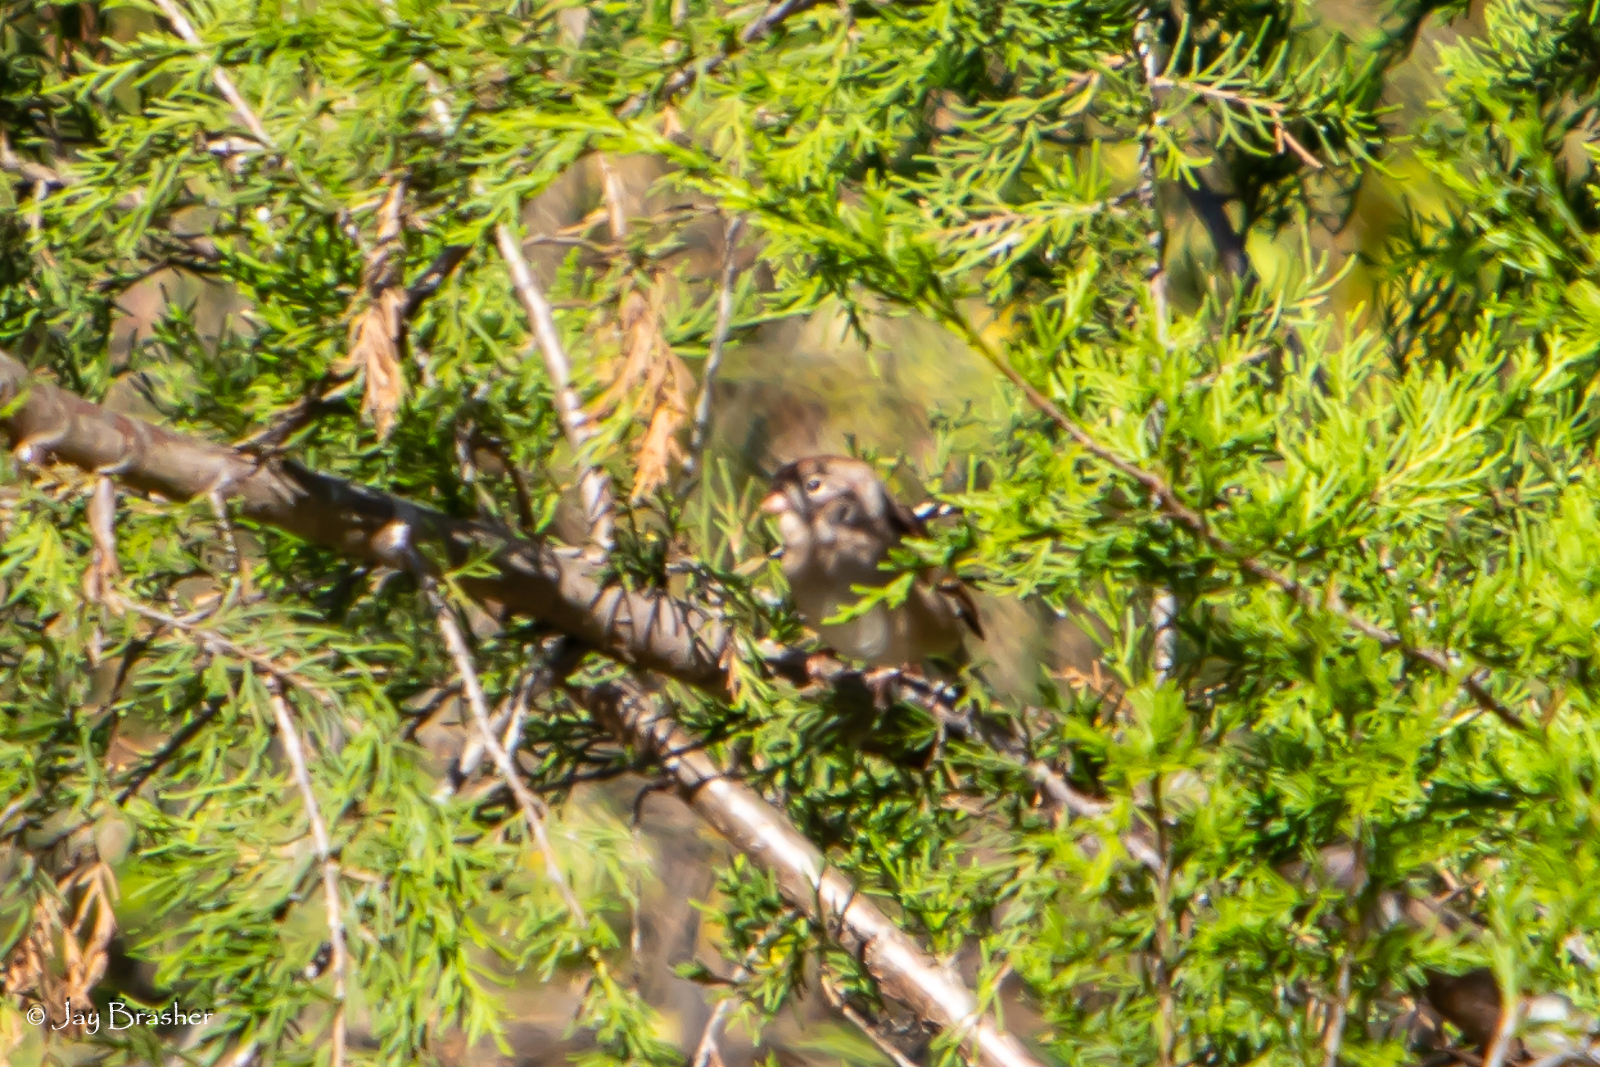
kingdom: Animalia
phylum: Chordata
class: Aves
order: Passeriformes
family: Passerellidae
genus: Spizella
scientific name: Spizella pusilla
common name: Field sparrow
